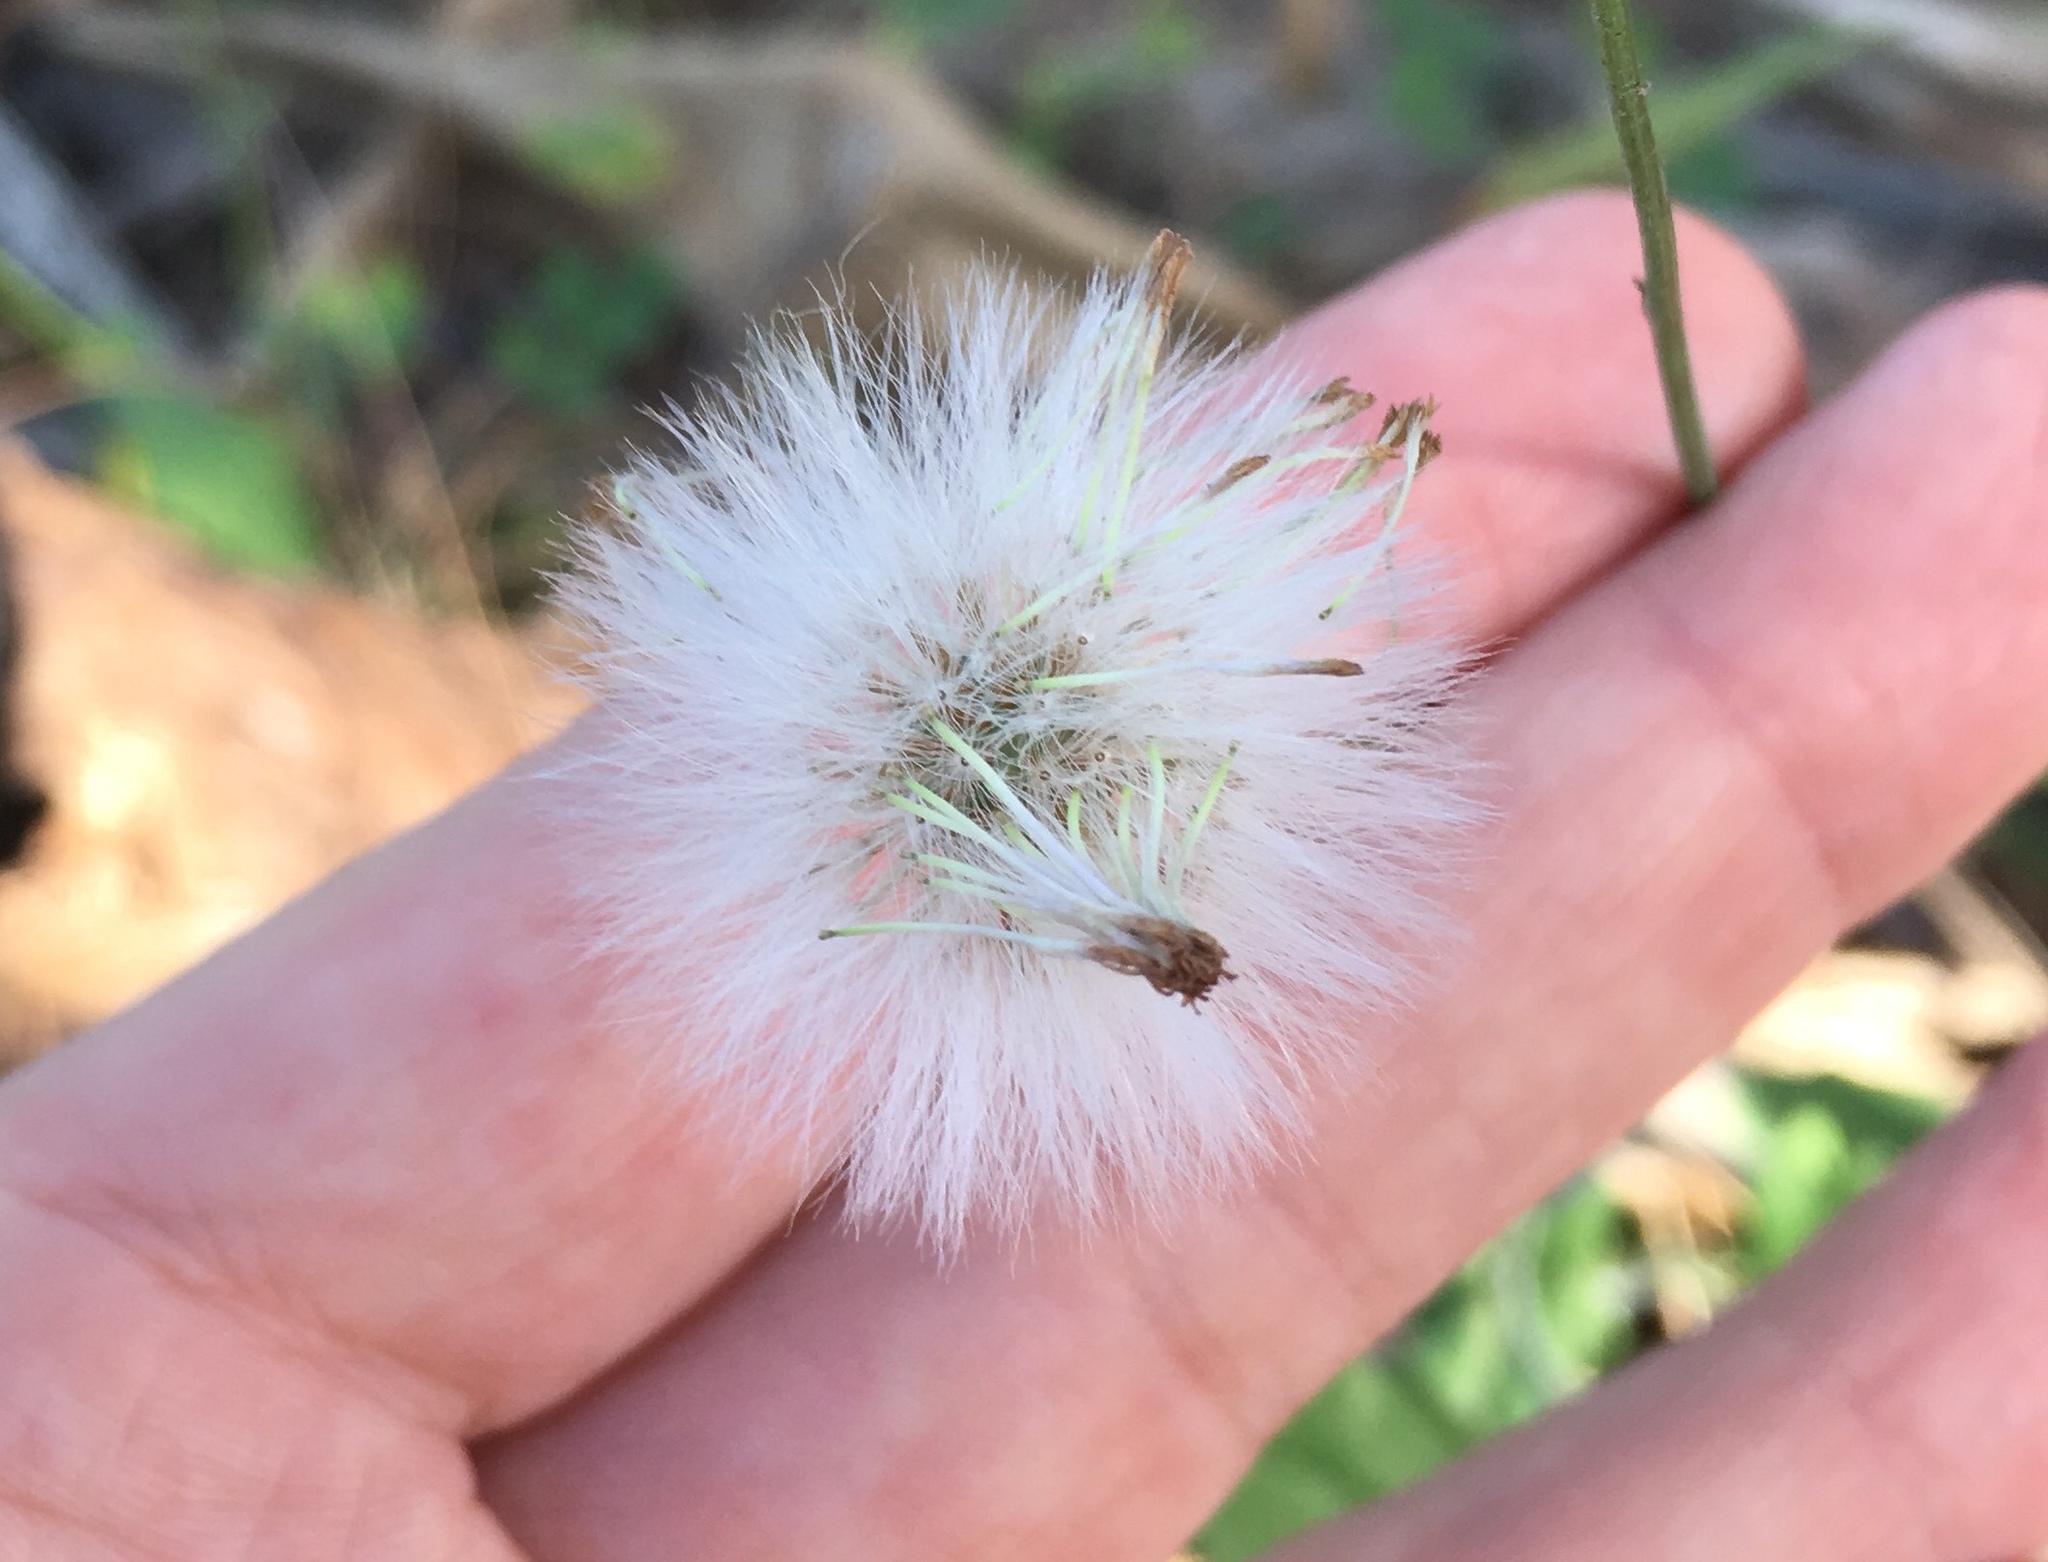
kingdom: Plantae
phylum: Tracheophyta
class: Magnoliopsida
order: Asterales
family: Asteraceae
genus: Emilia
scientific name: Emilia javanica
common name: Tassel-flower
